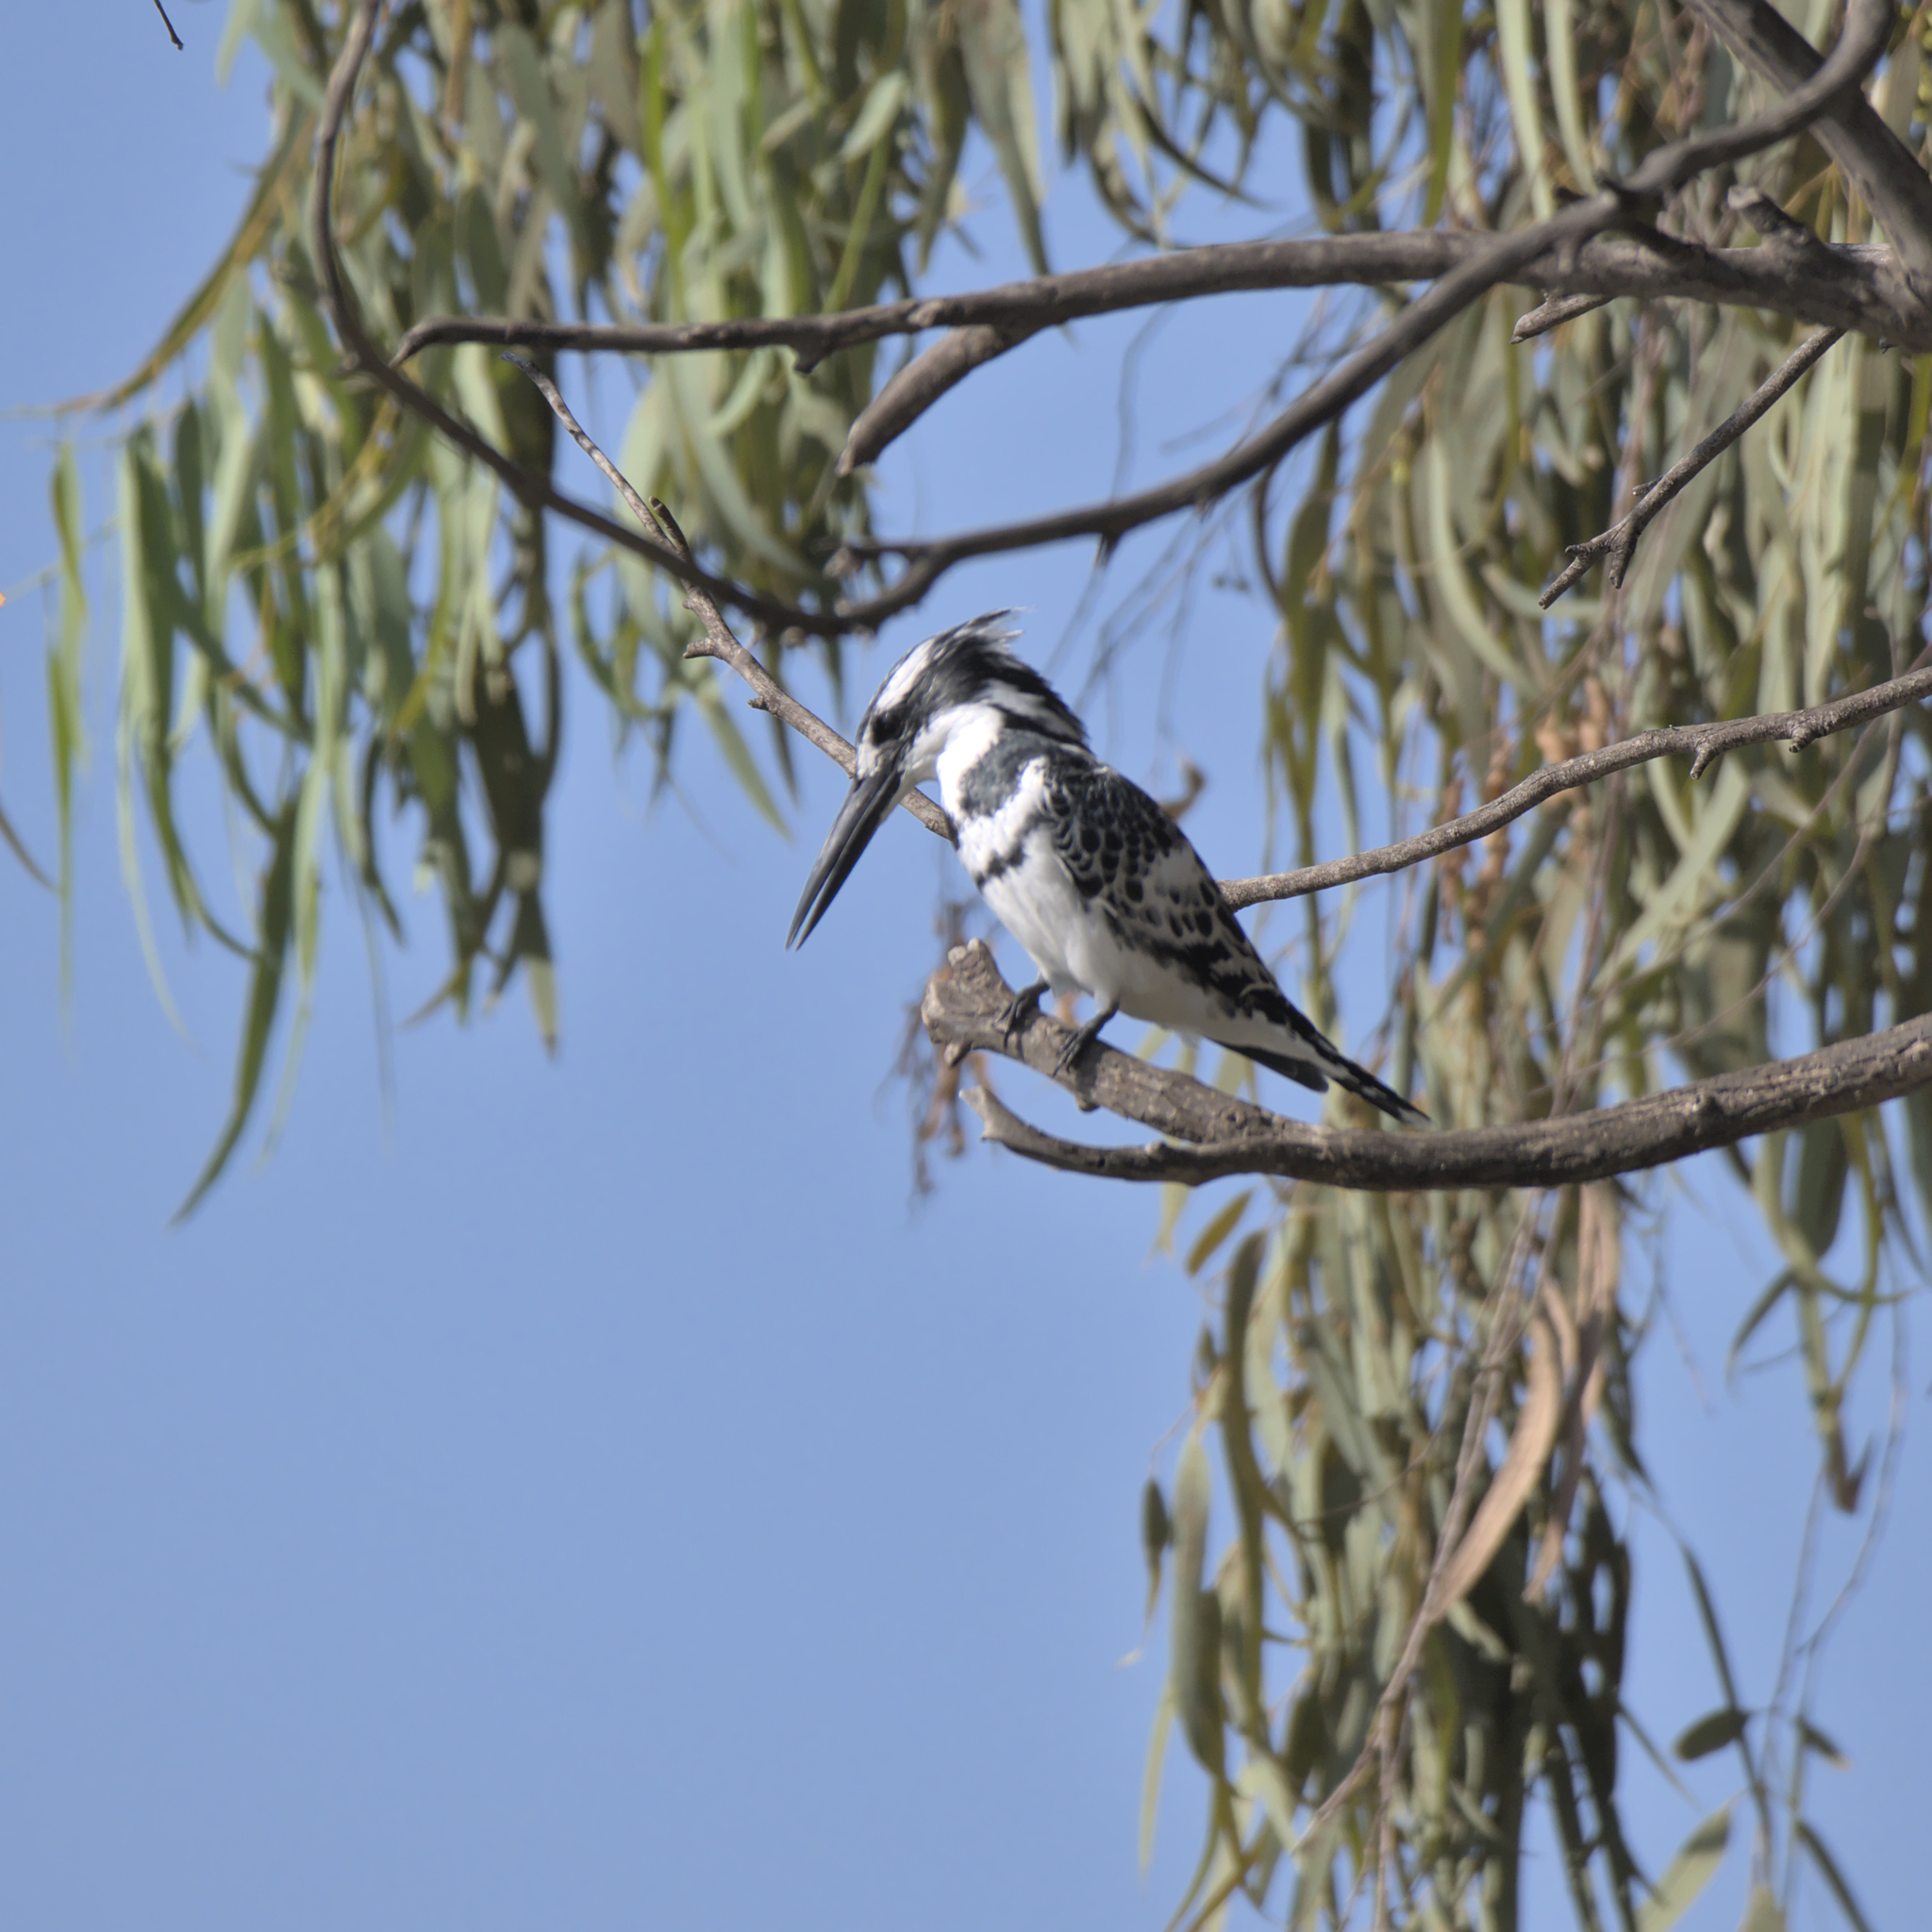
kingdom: Animalia
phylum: Chordata
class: Aves
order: Coraciiformes
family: Alcedinidae
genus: Ceryle
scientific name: Ceryle rudis
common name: Pied kingfisher
